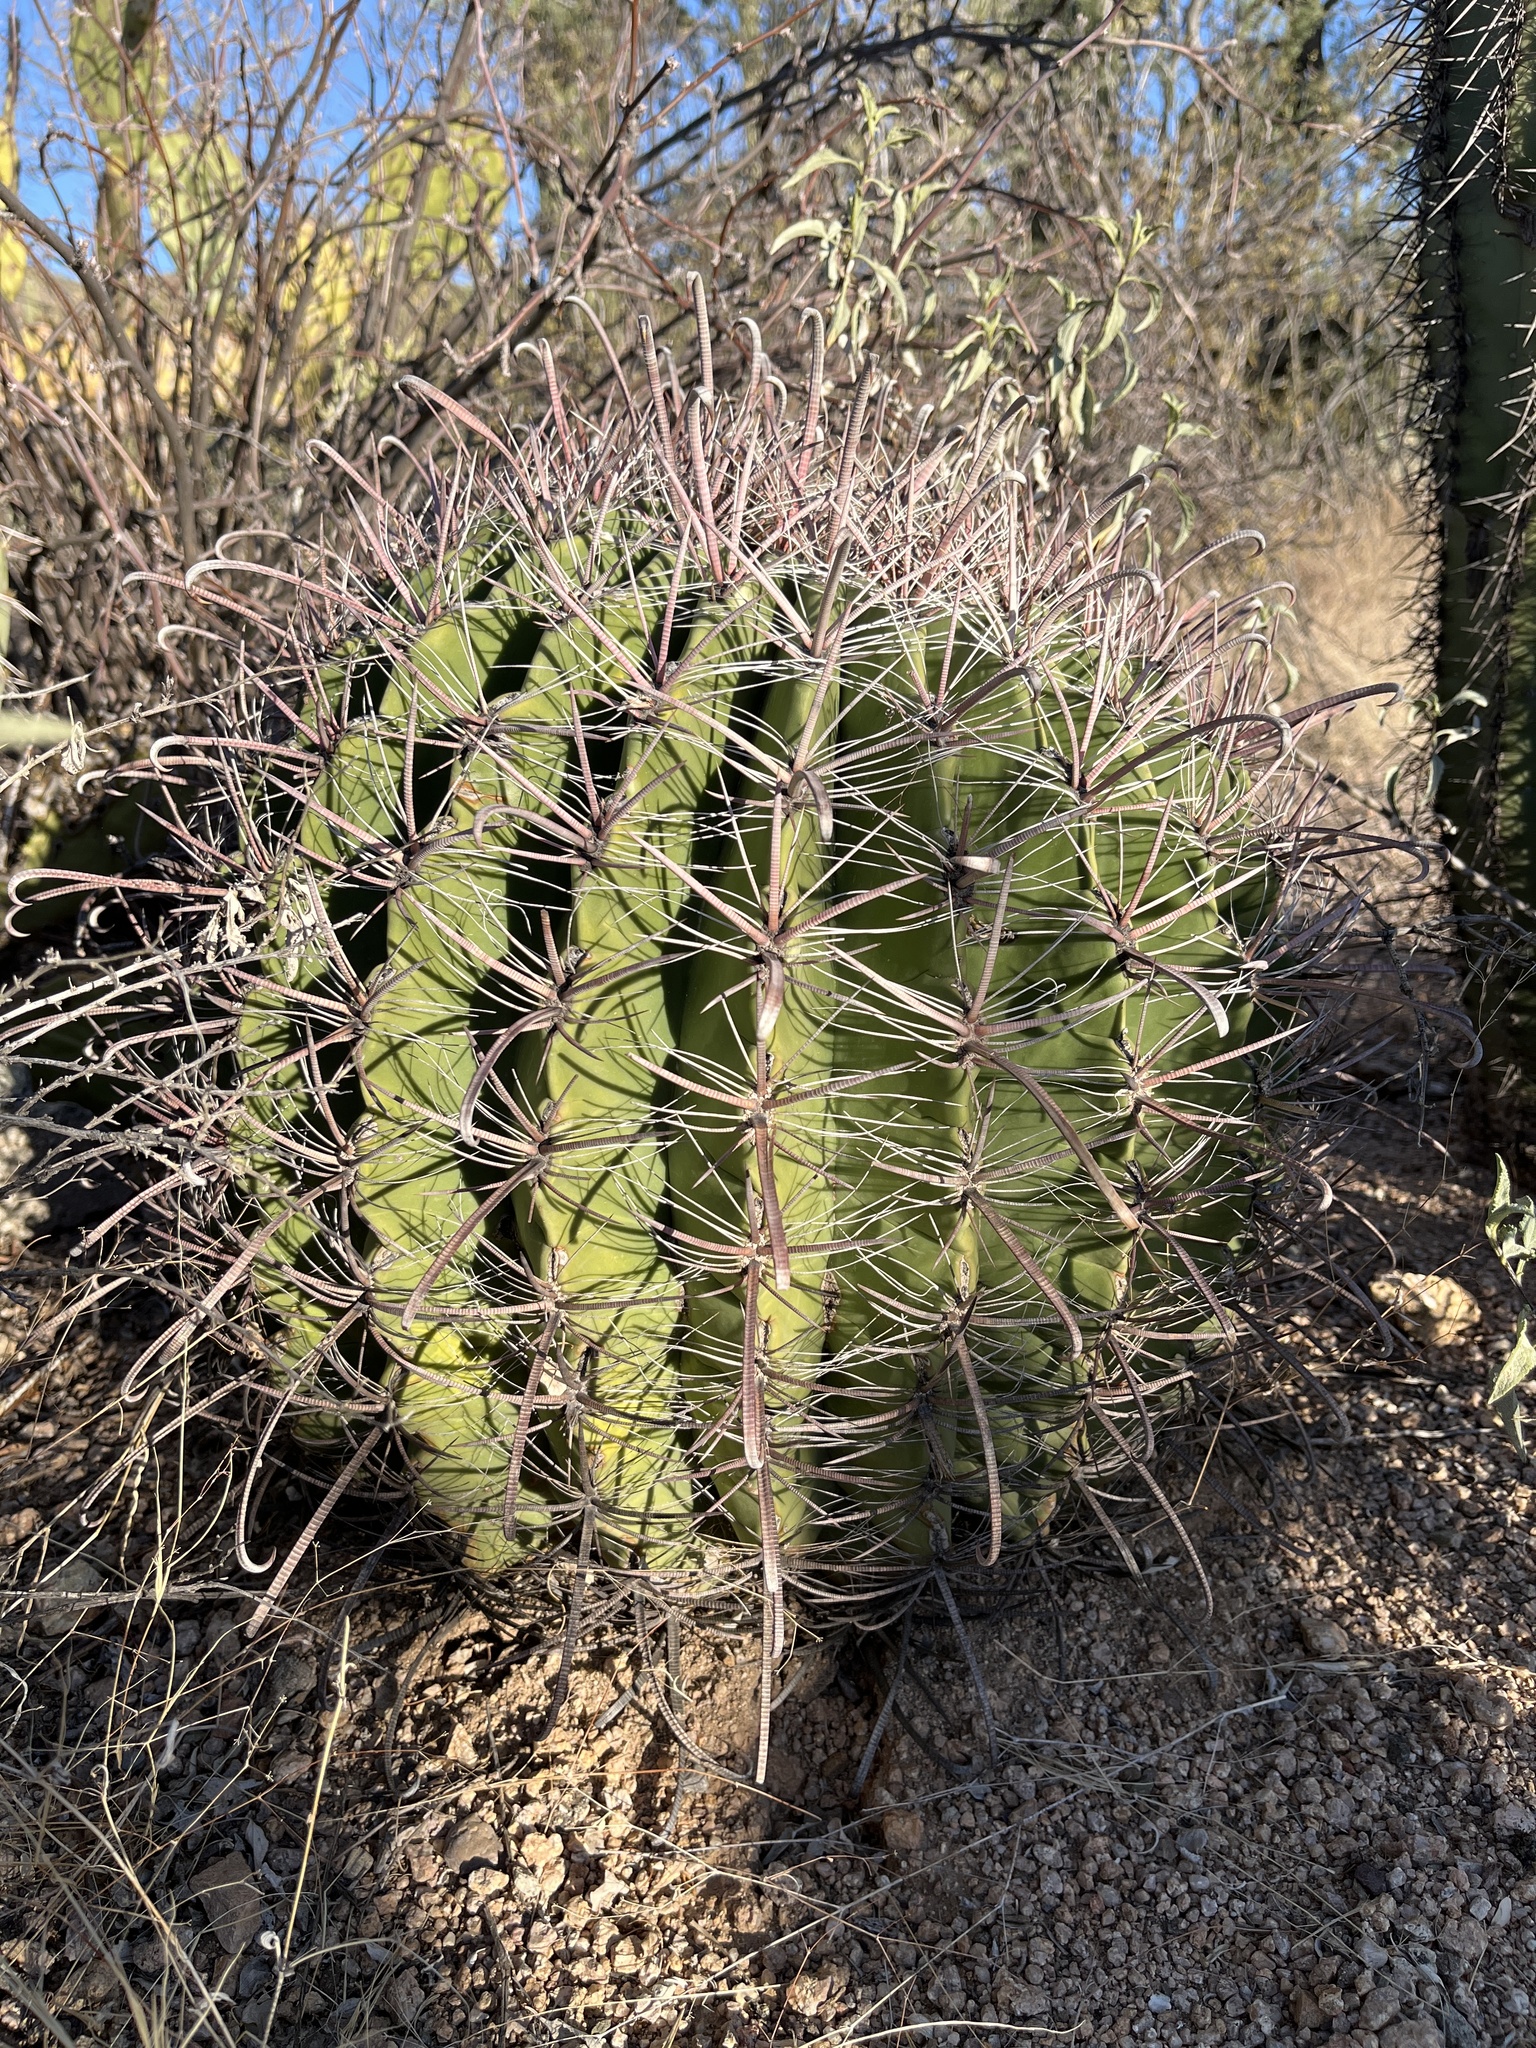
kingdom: Plantae
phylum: Tracheophyta
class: Magnoliopsida
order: Caryophyllales
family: Cactaceae
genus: Ferocactus
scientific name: Ferocactus wislizeni
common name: Candy barrel cactus
